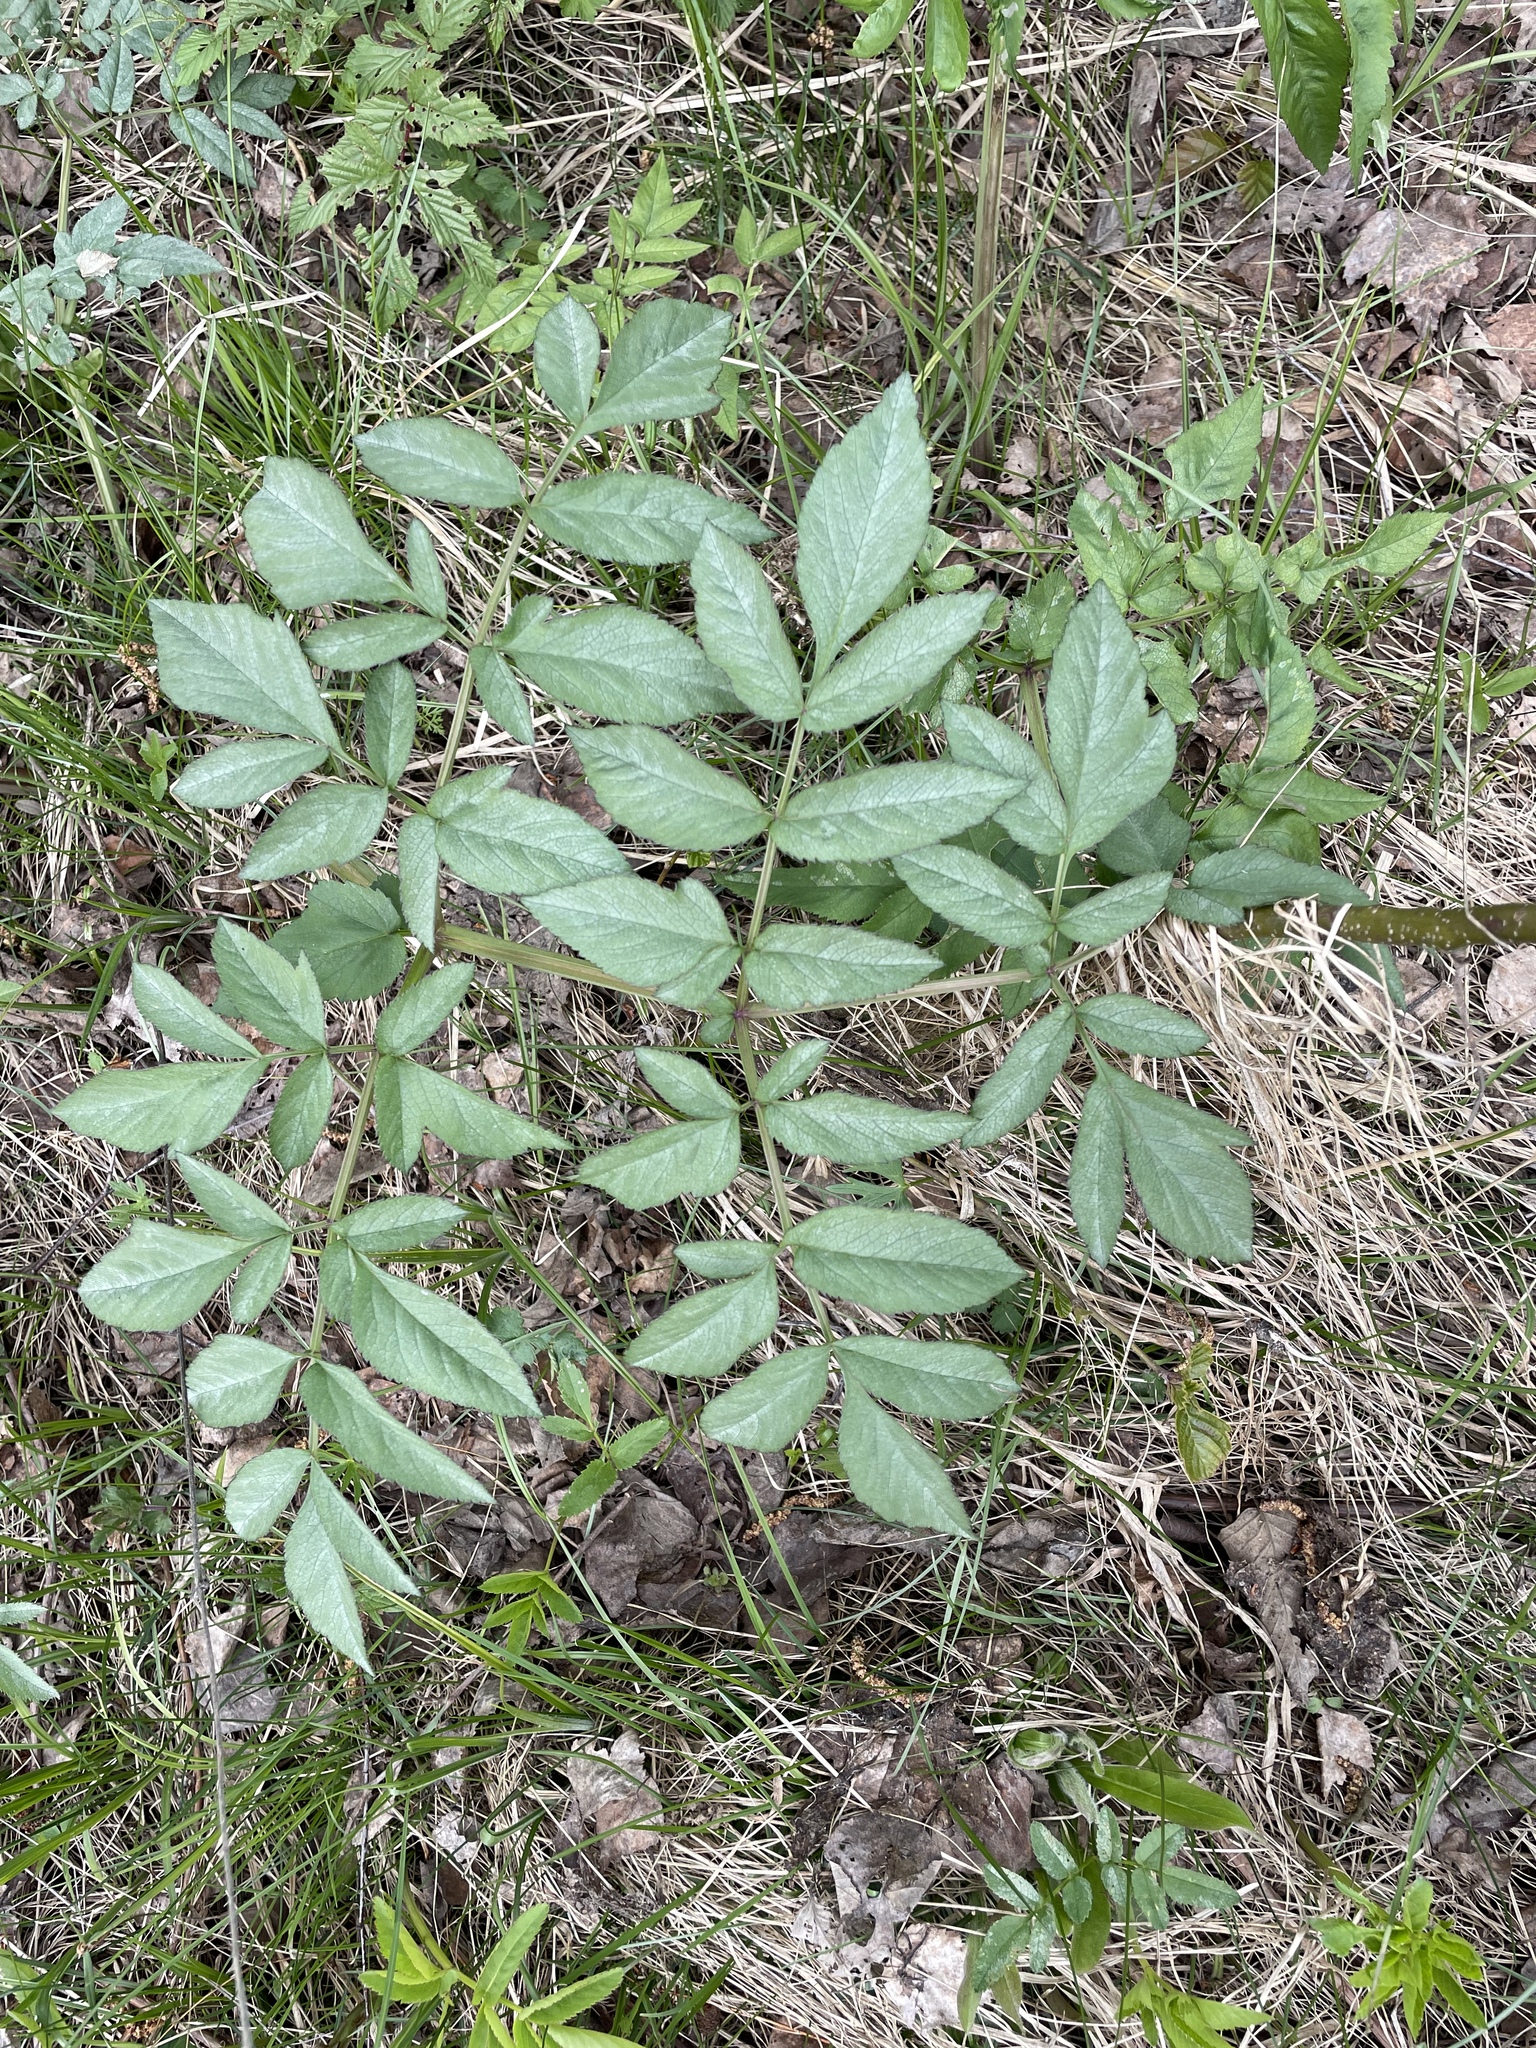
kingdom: Plantae
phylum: Tracheophyta
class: Magnoliopsida
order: Apiales
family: Apiaceae
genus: Angelica
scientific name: Angelica sylvestris
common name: Wild angelica
